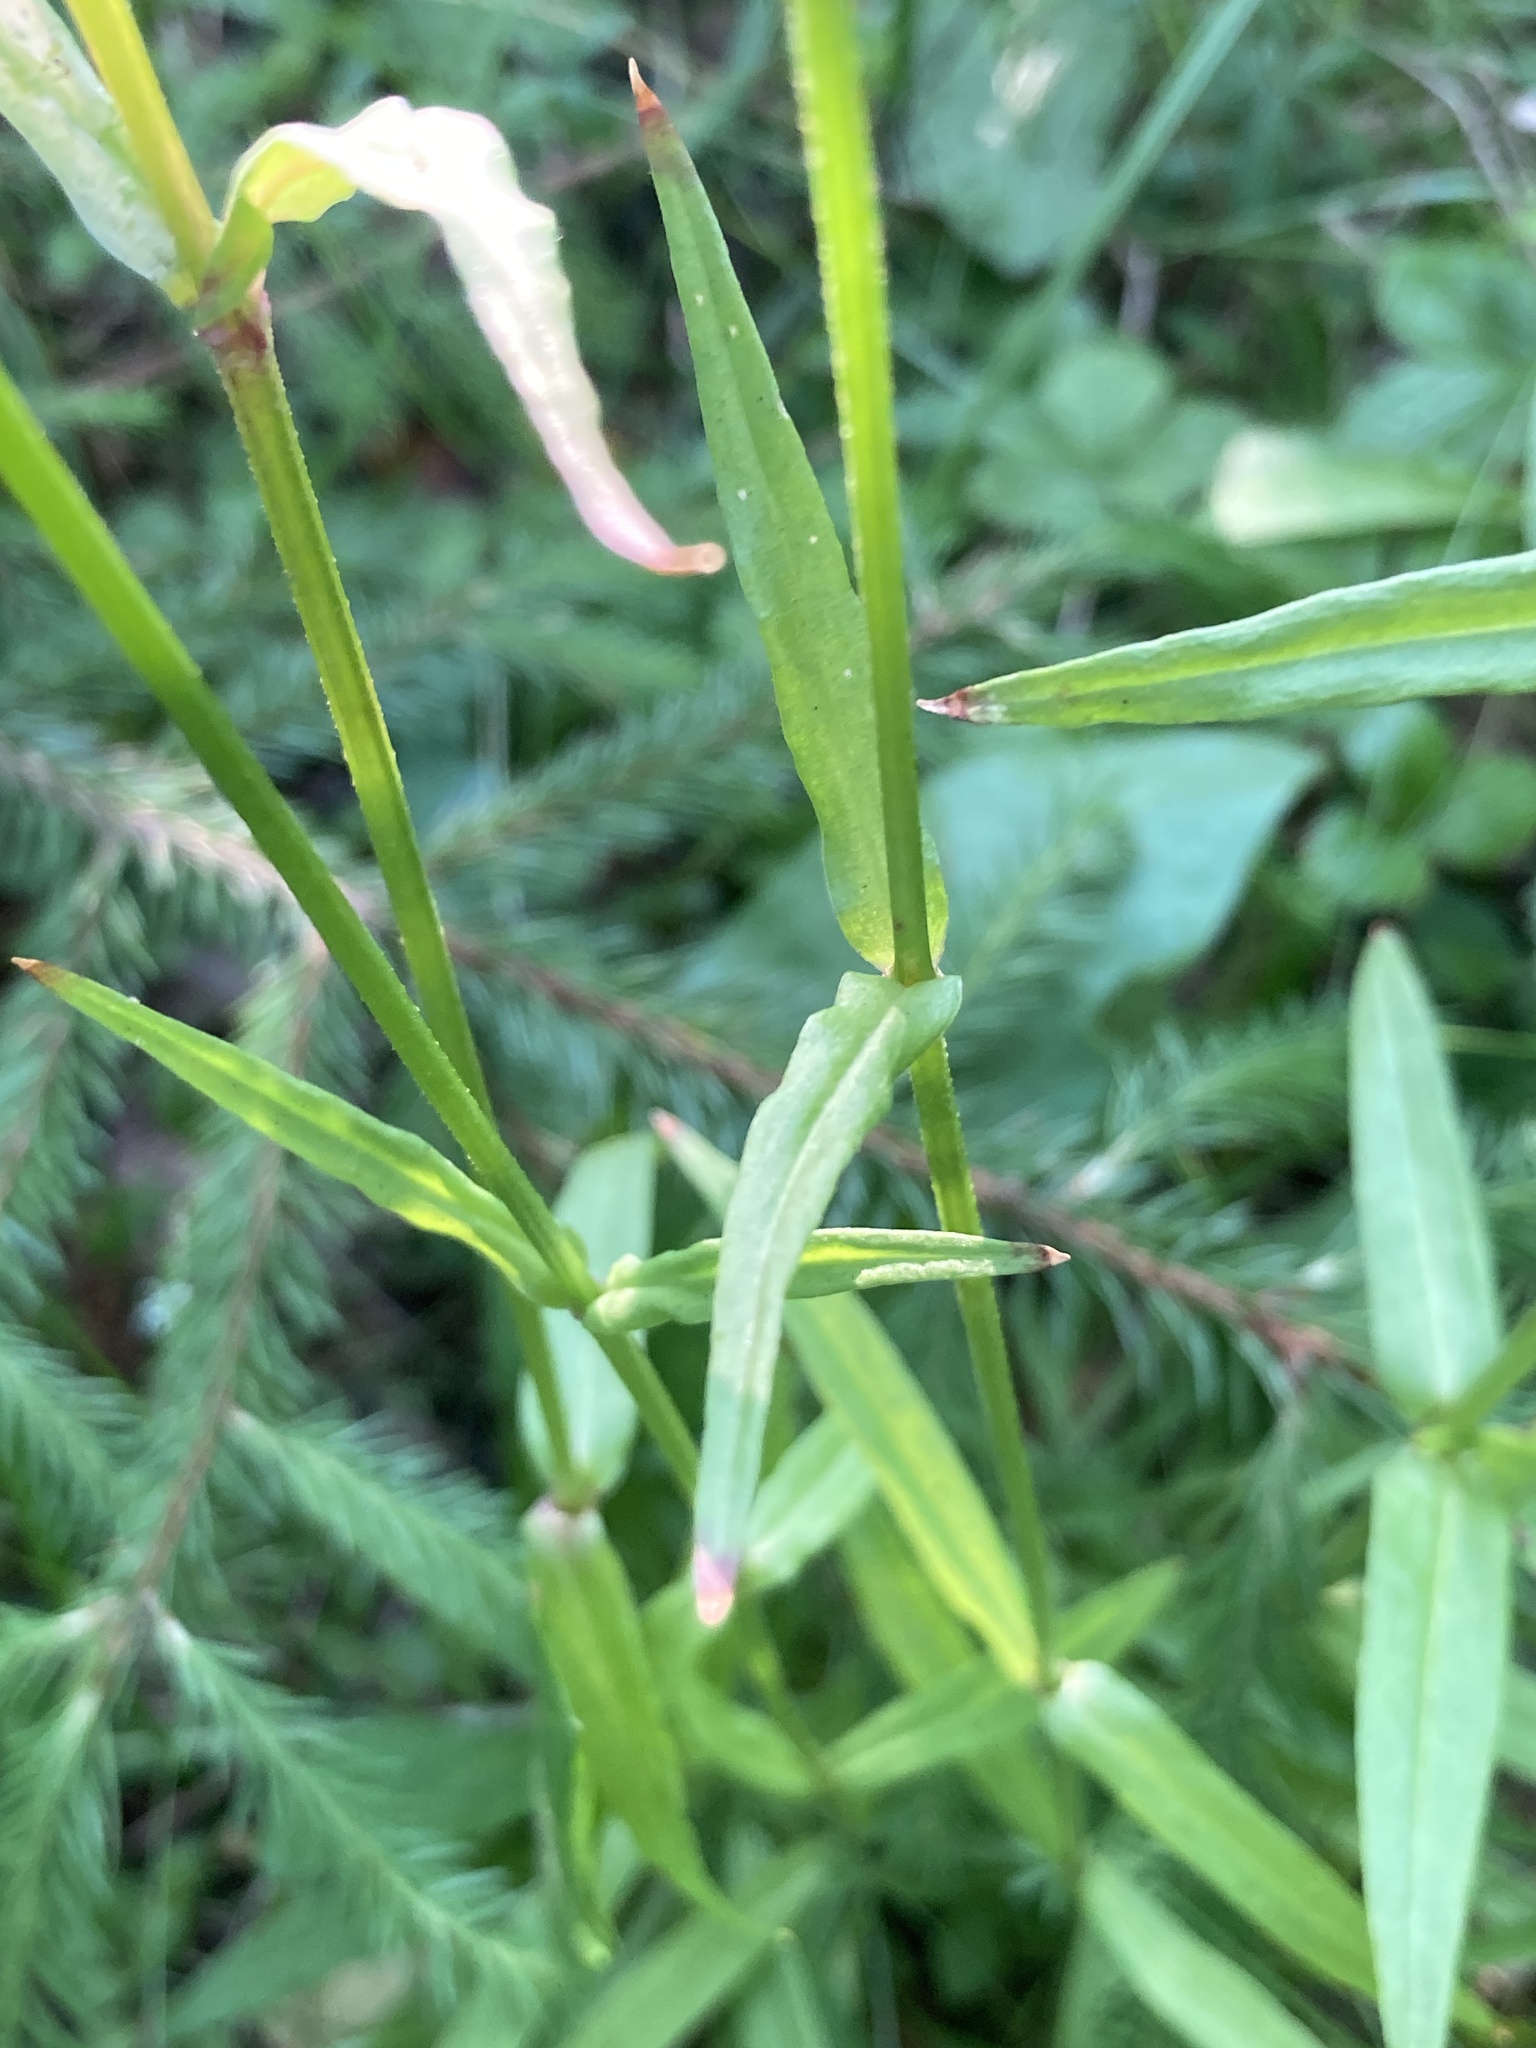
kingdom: Plantae
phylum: Tracheophyta
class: Magnoliopsida
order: Caryophyllales
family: Caryophyllaceae
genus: Silene
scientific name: Silene flos-cuculi
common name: Ragged-robin
